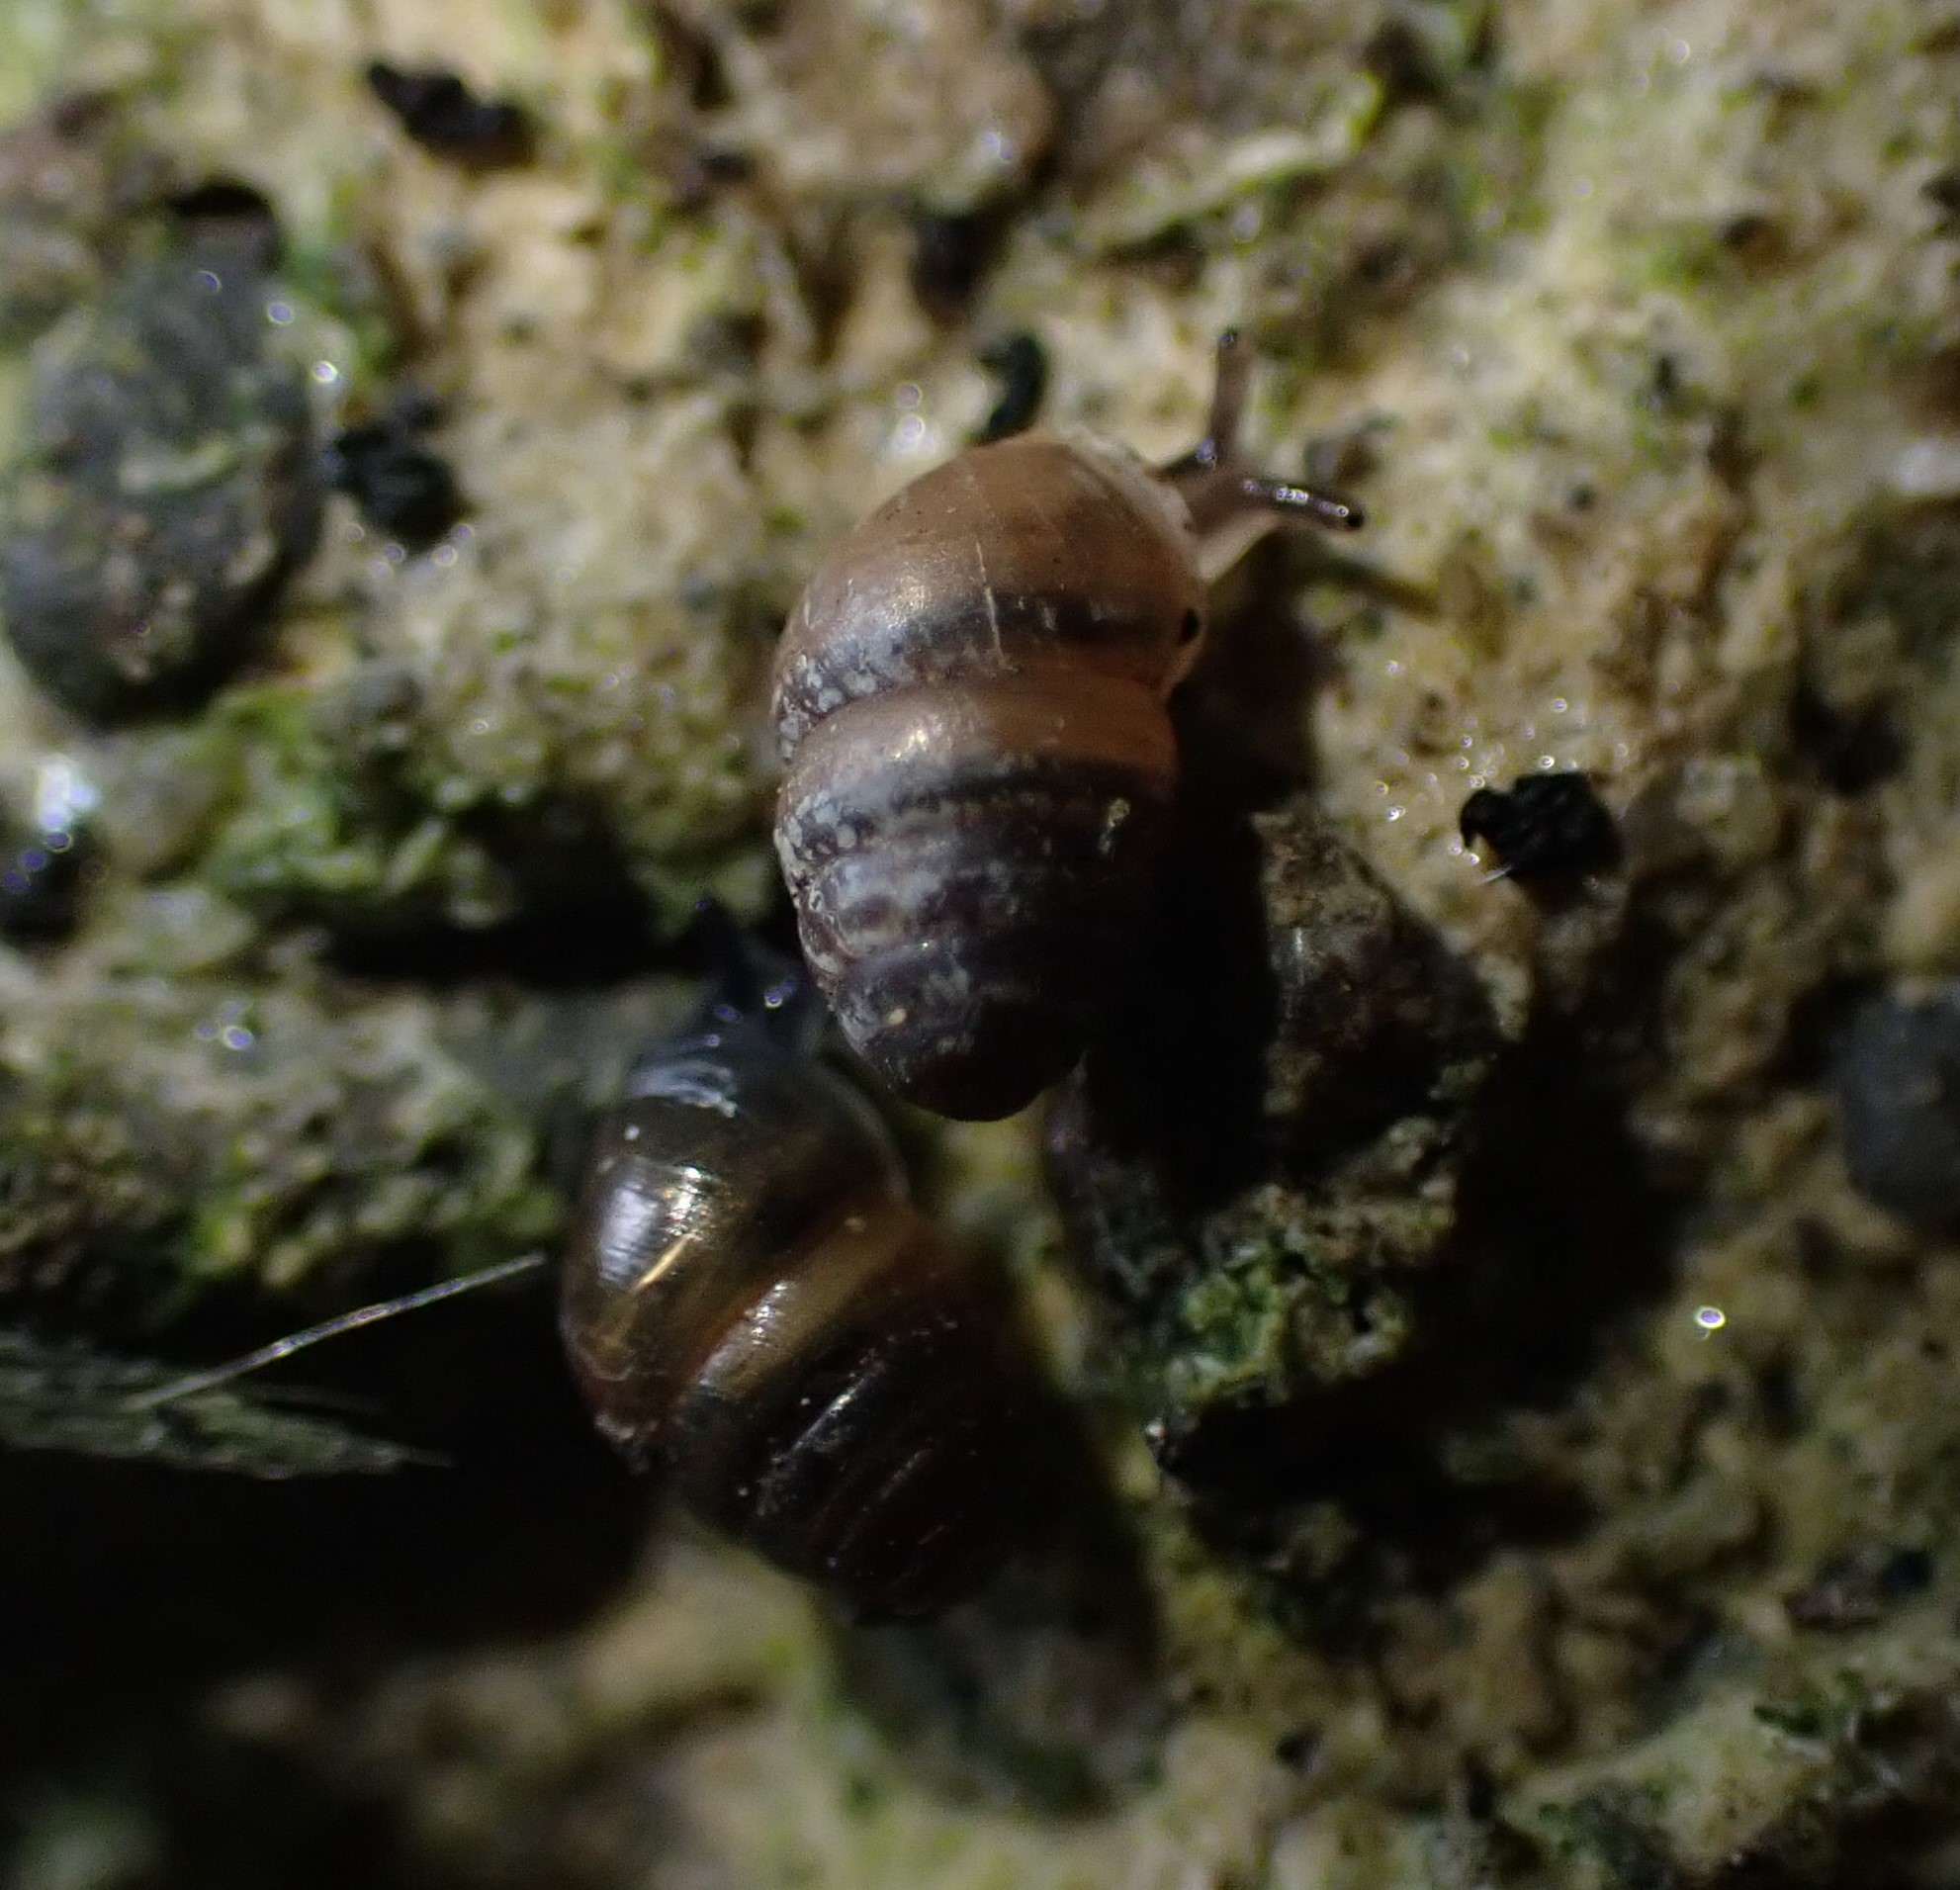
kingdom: Animalia
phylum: Mollusca
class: Gastropoda
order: Stylommatophora
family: Lauriidae
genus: Lauria
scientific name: Lauria cylindracea
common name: Common chrysalis snail
